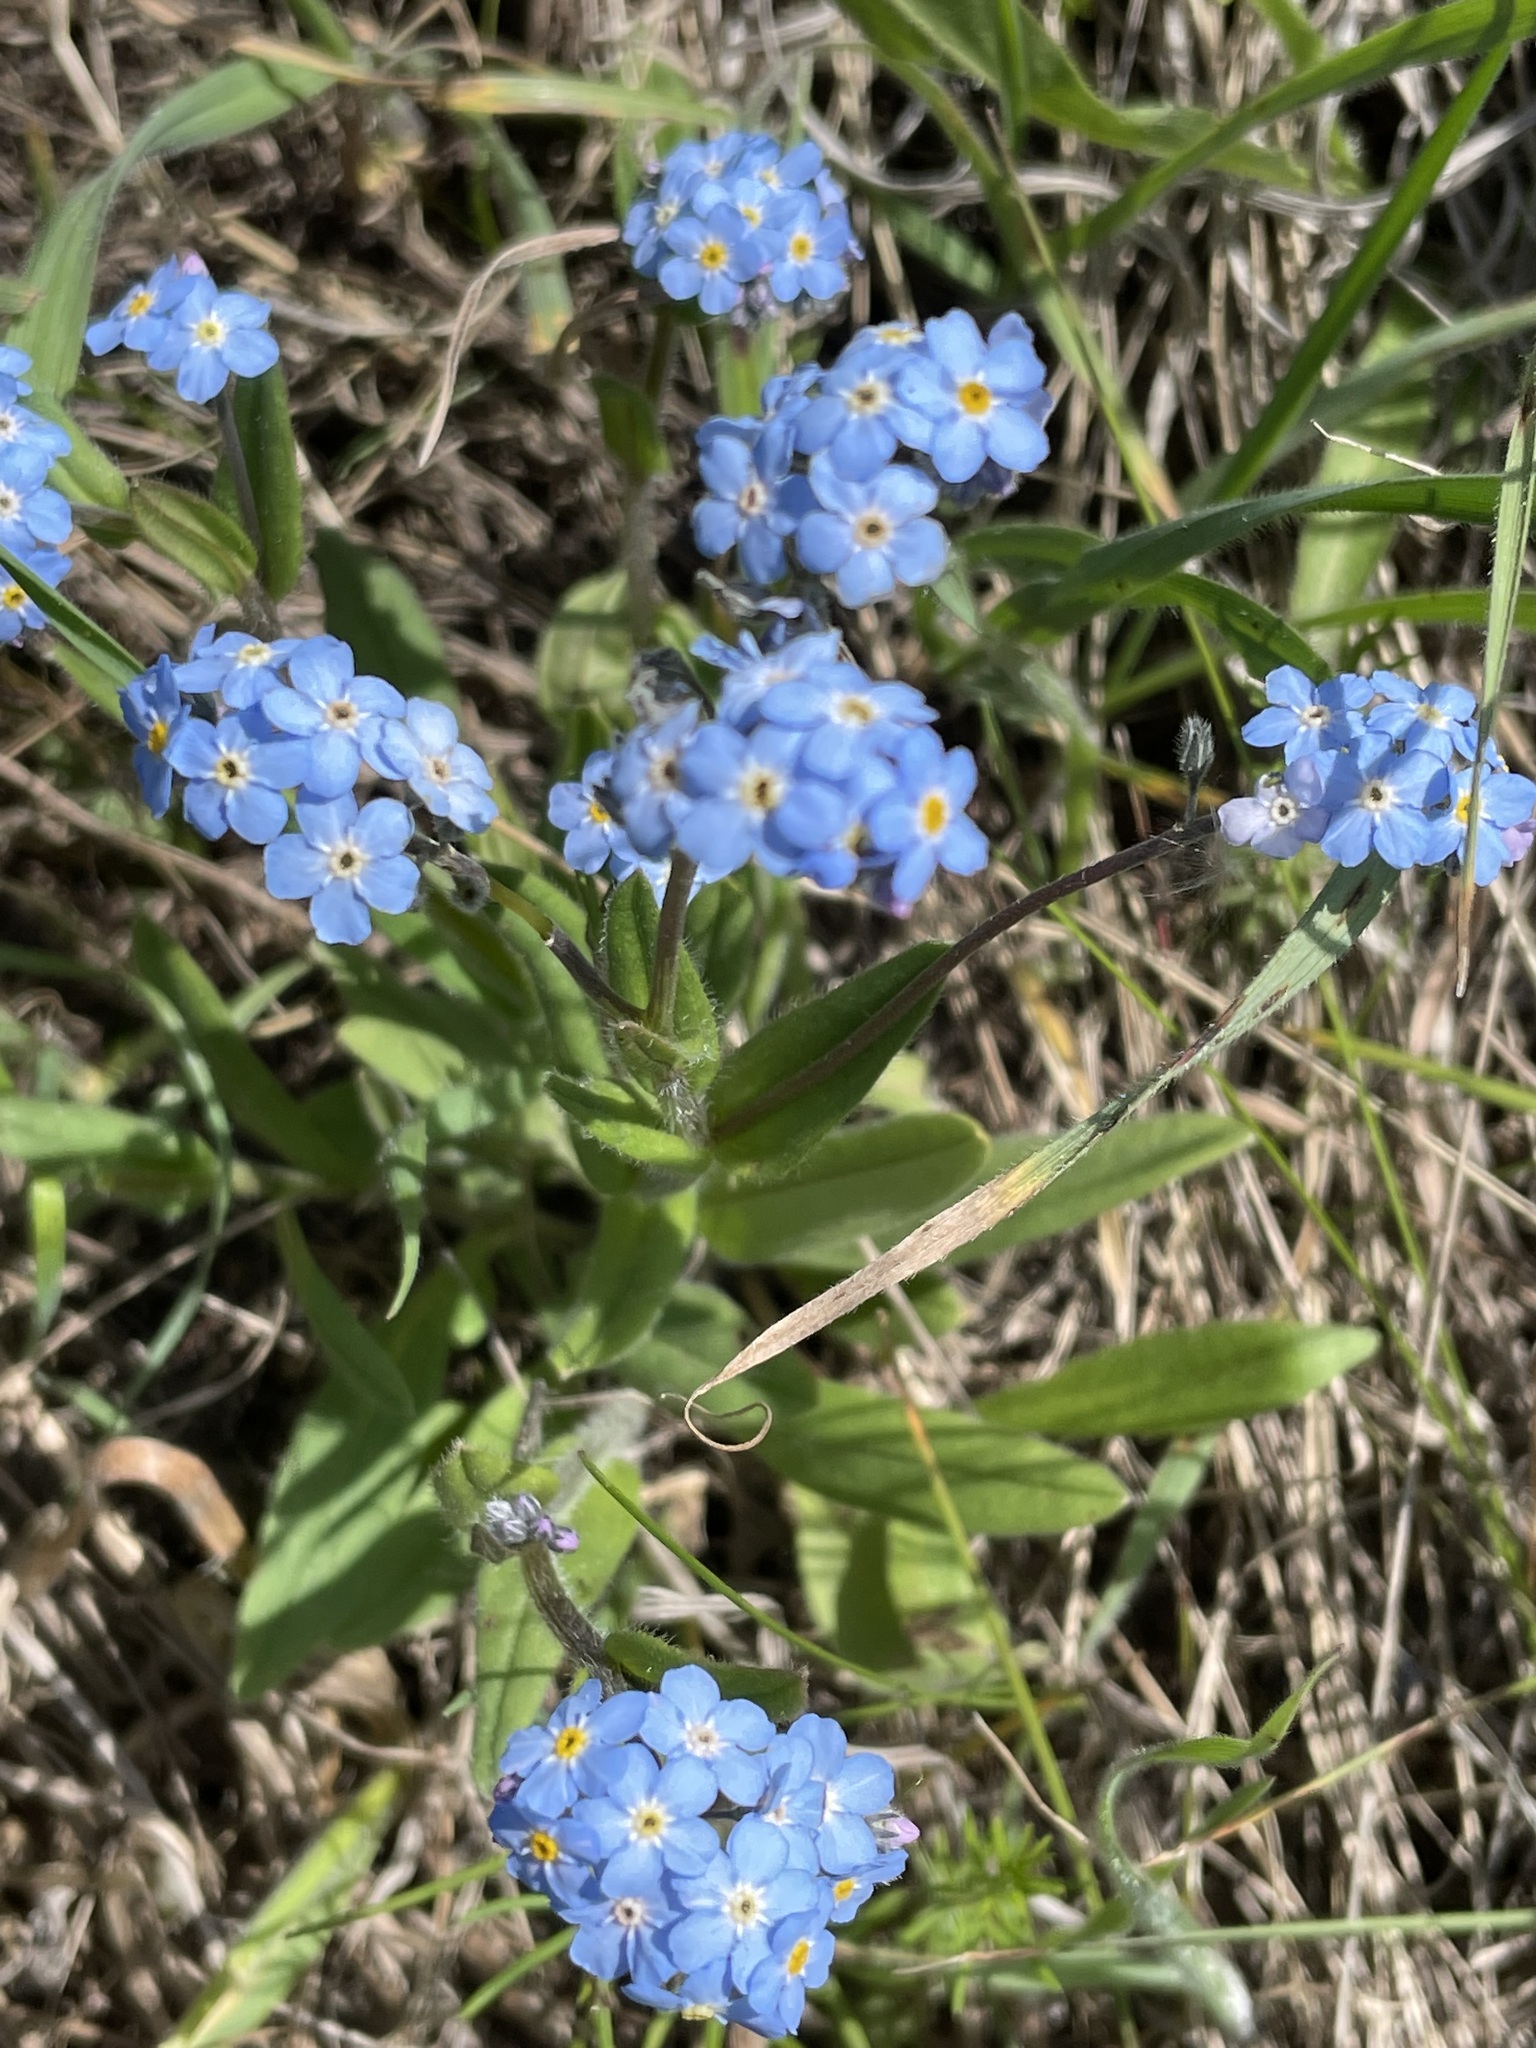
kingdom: Plantae
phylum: Tracheophyta
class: Magnoliopsida
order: Boraginales
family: Boraginaceae
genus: Myosotis
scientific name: Myosotis alpestris
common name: Alpine forget-me-not
